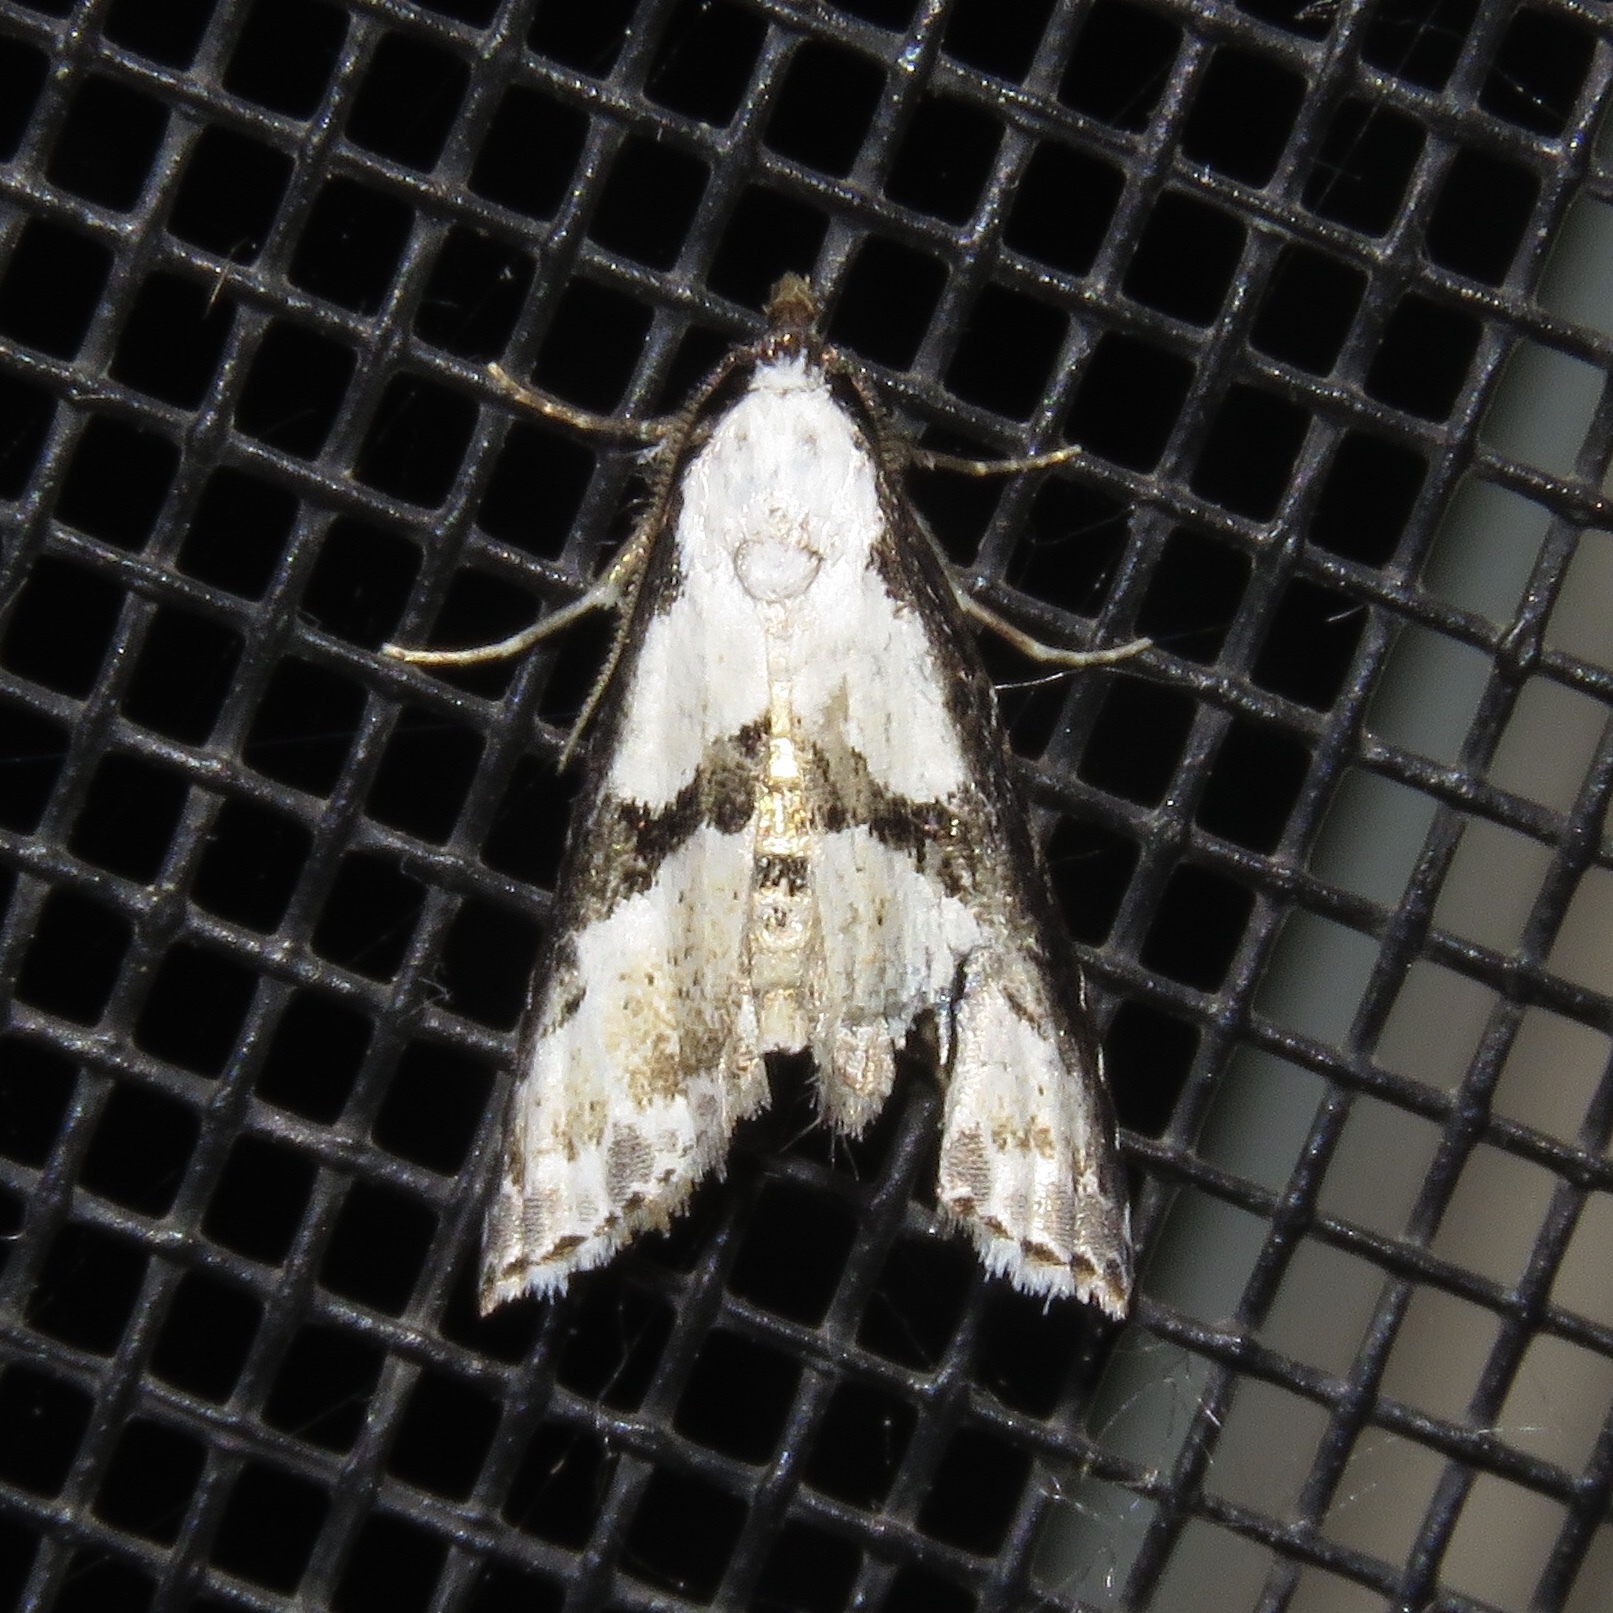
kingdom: Animalia
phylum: Arthropoda
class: Insecta
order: Lepidoptera
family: Noctuidae
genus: Nigetia
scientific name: Nigetia formosalis
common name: Thin-winged owlet
